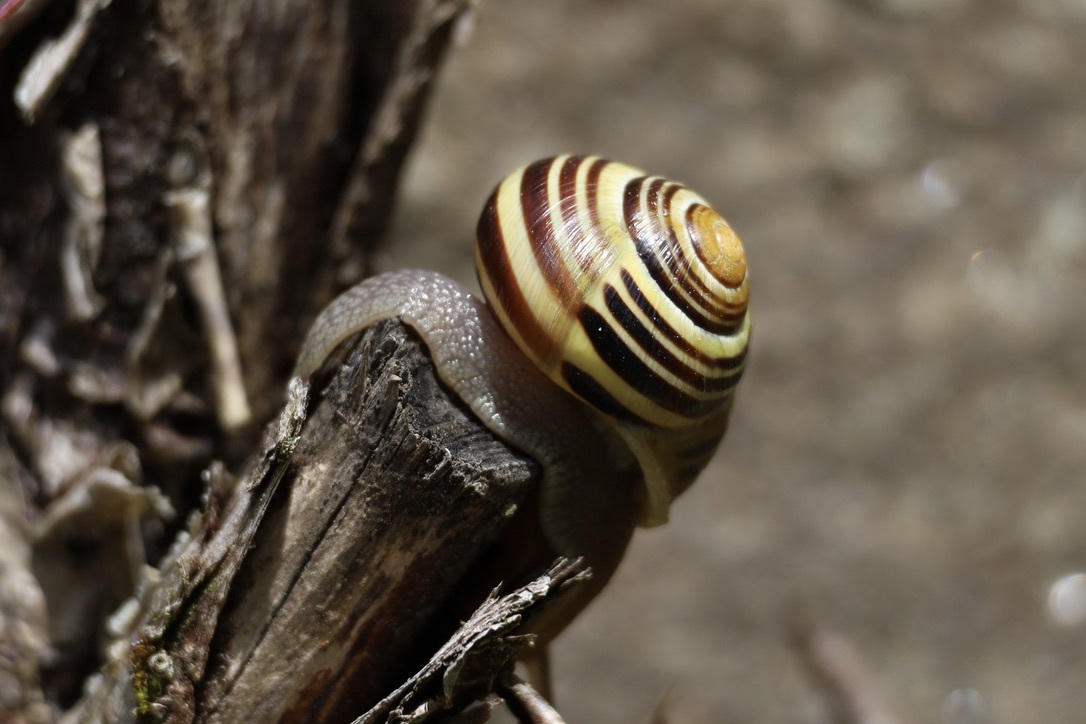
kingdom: Animalia
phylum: Mollusca
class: Gastropoda
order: Stylommatophora
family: Helicidae
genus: Cepaea
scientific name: Cepaea nemoralis
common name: Grovesnail
